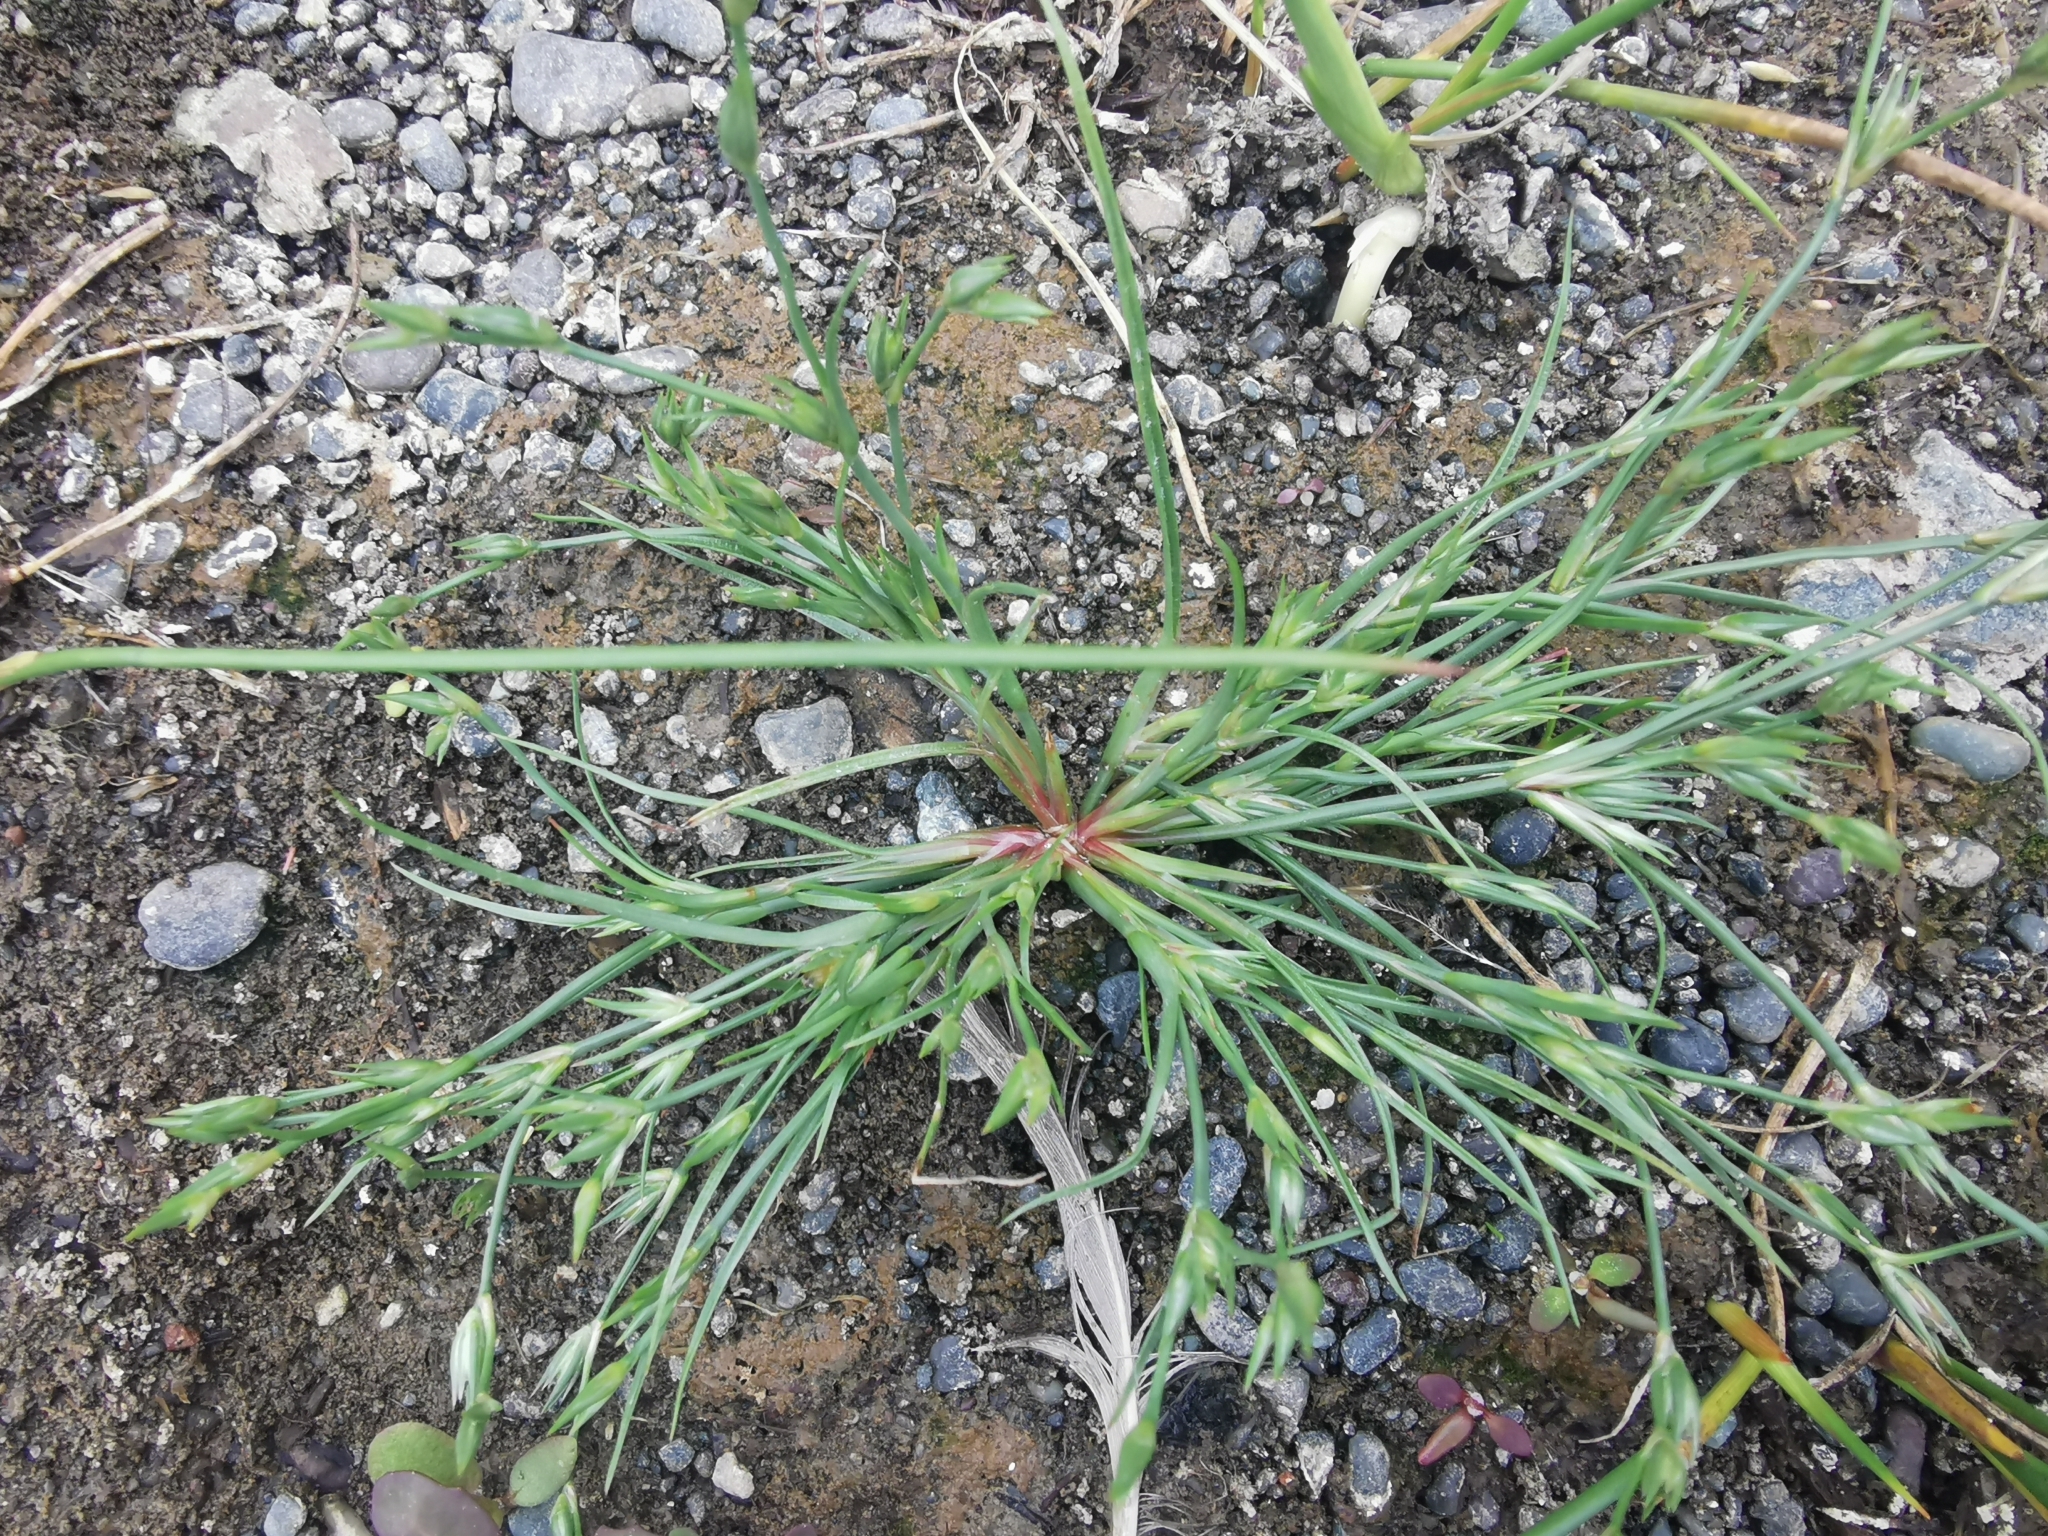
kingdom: Plantae
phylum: Tracheophyta
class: Liliopsida
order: Poales
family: Juncaceae
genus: Juncus
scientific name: Juncus bufonius
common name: Toad rush
